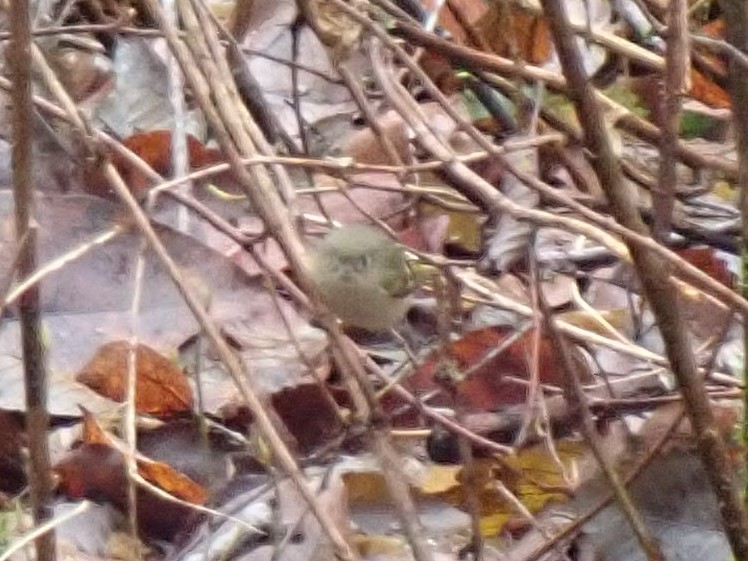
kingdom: Animalia
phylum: Chordata
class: Aves
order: Passeriformes
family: Regulidae
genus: Regulus
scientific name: Regulus calendula
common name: Ruby-crowned kinglet
